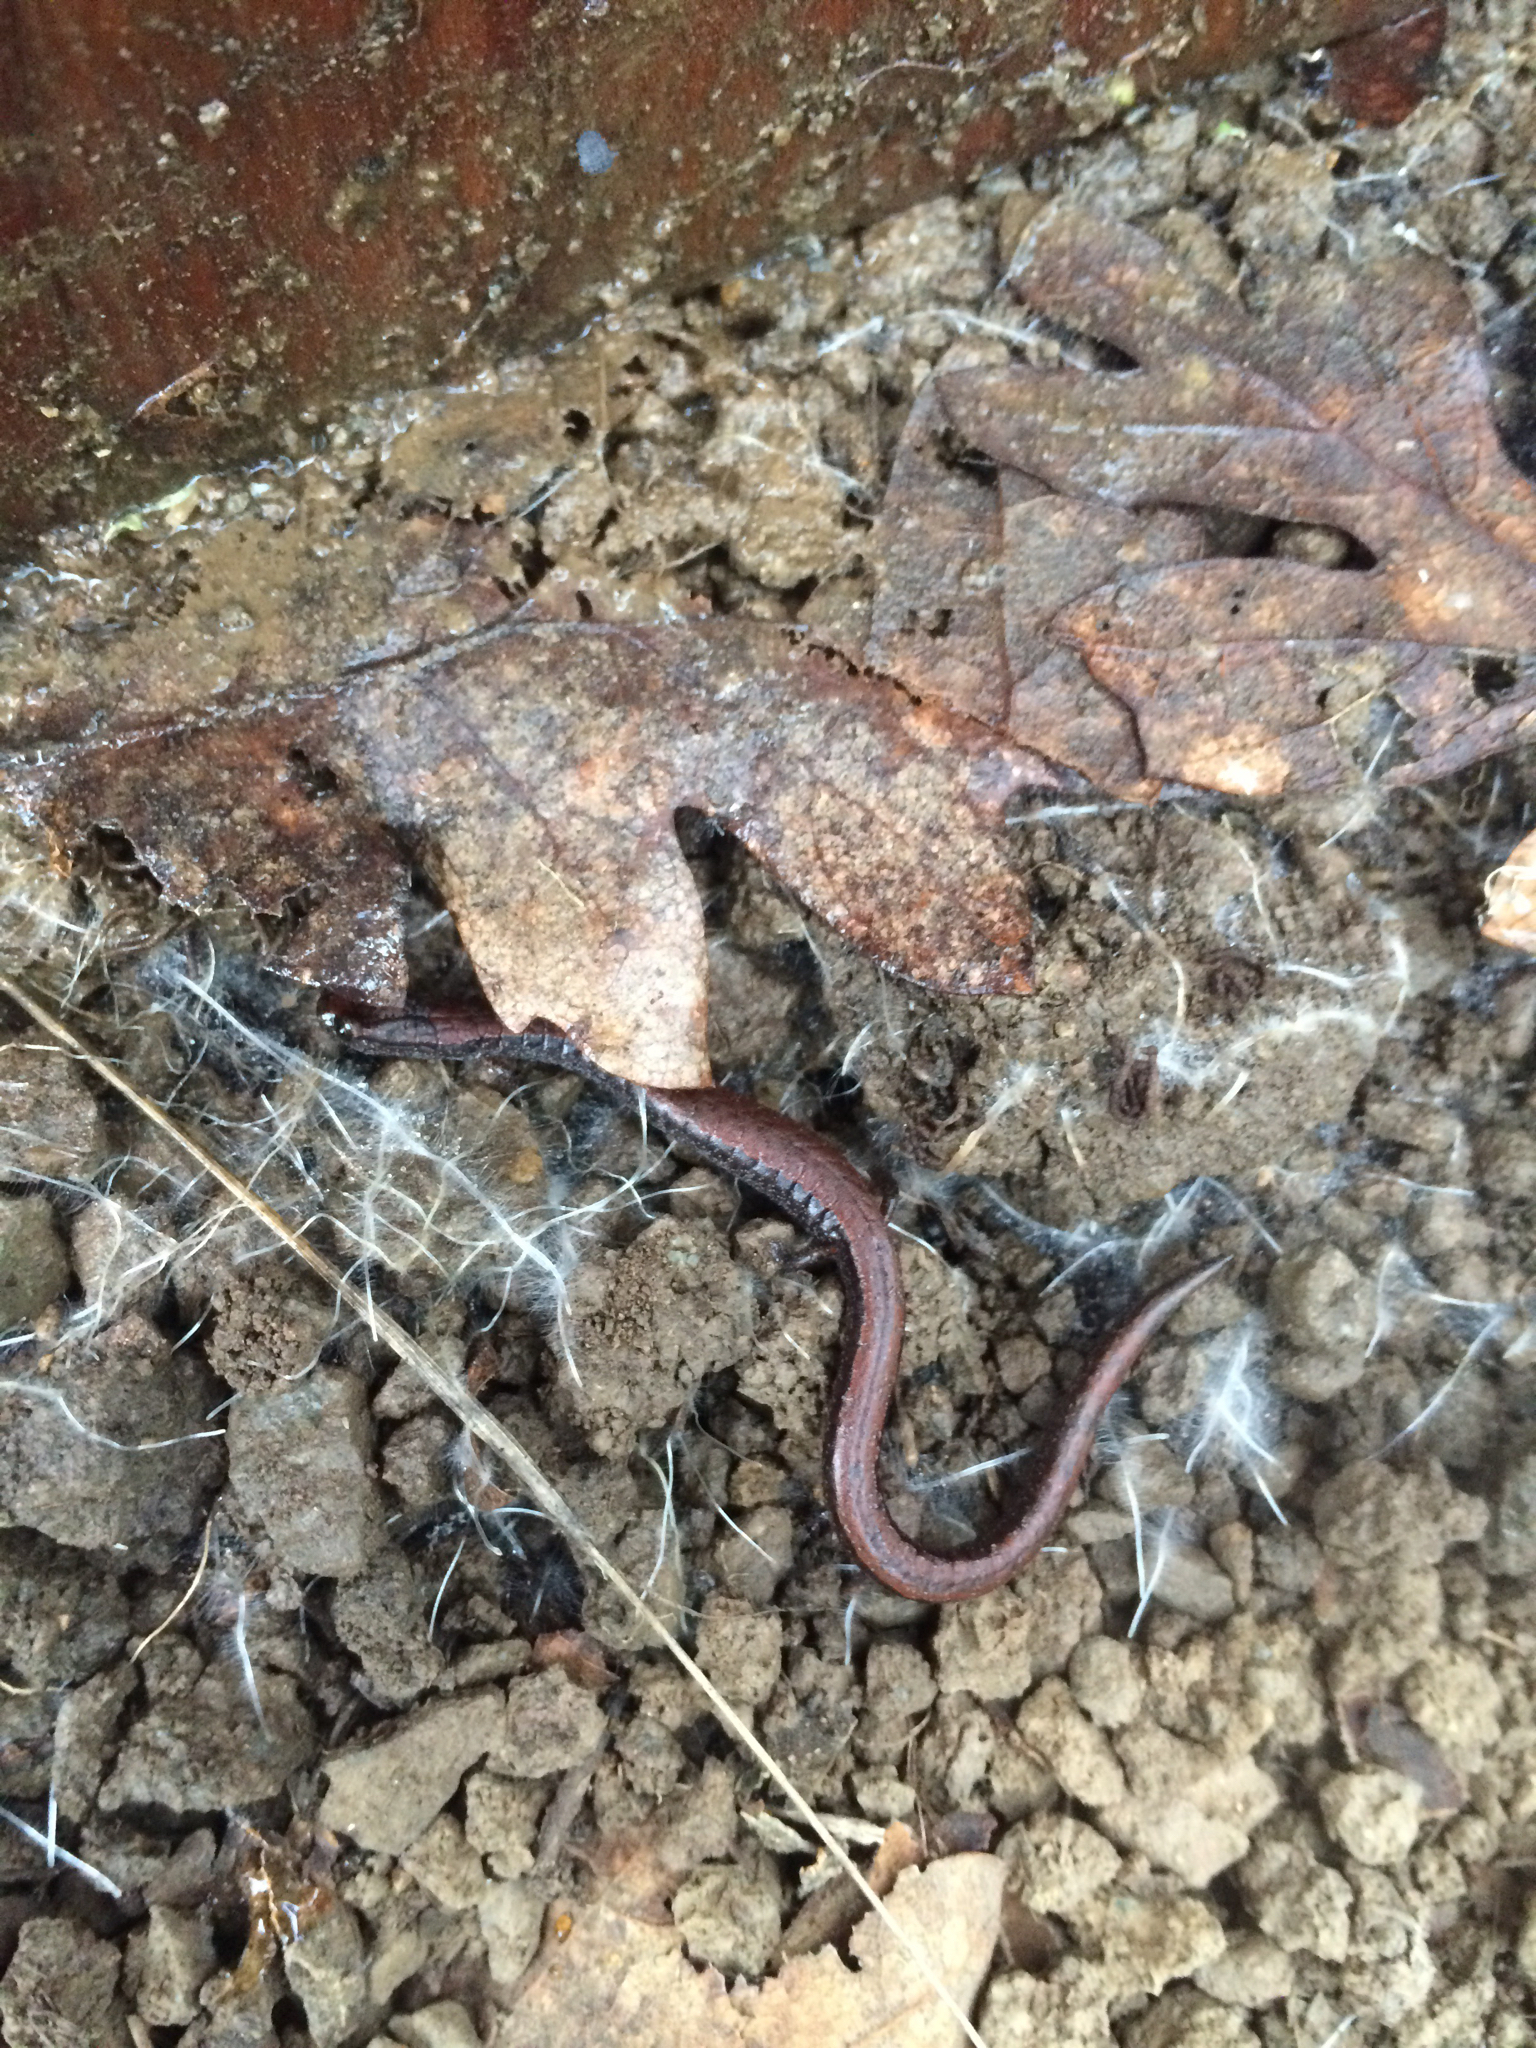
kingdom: Animalia
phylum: Chordata
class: Amphibia
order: Caudata
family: Plethodontidae
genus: Batrachoseps
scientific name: Batrachoseps attenuatus
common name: California slender salamander
